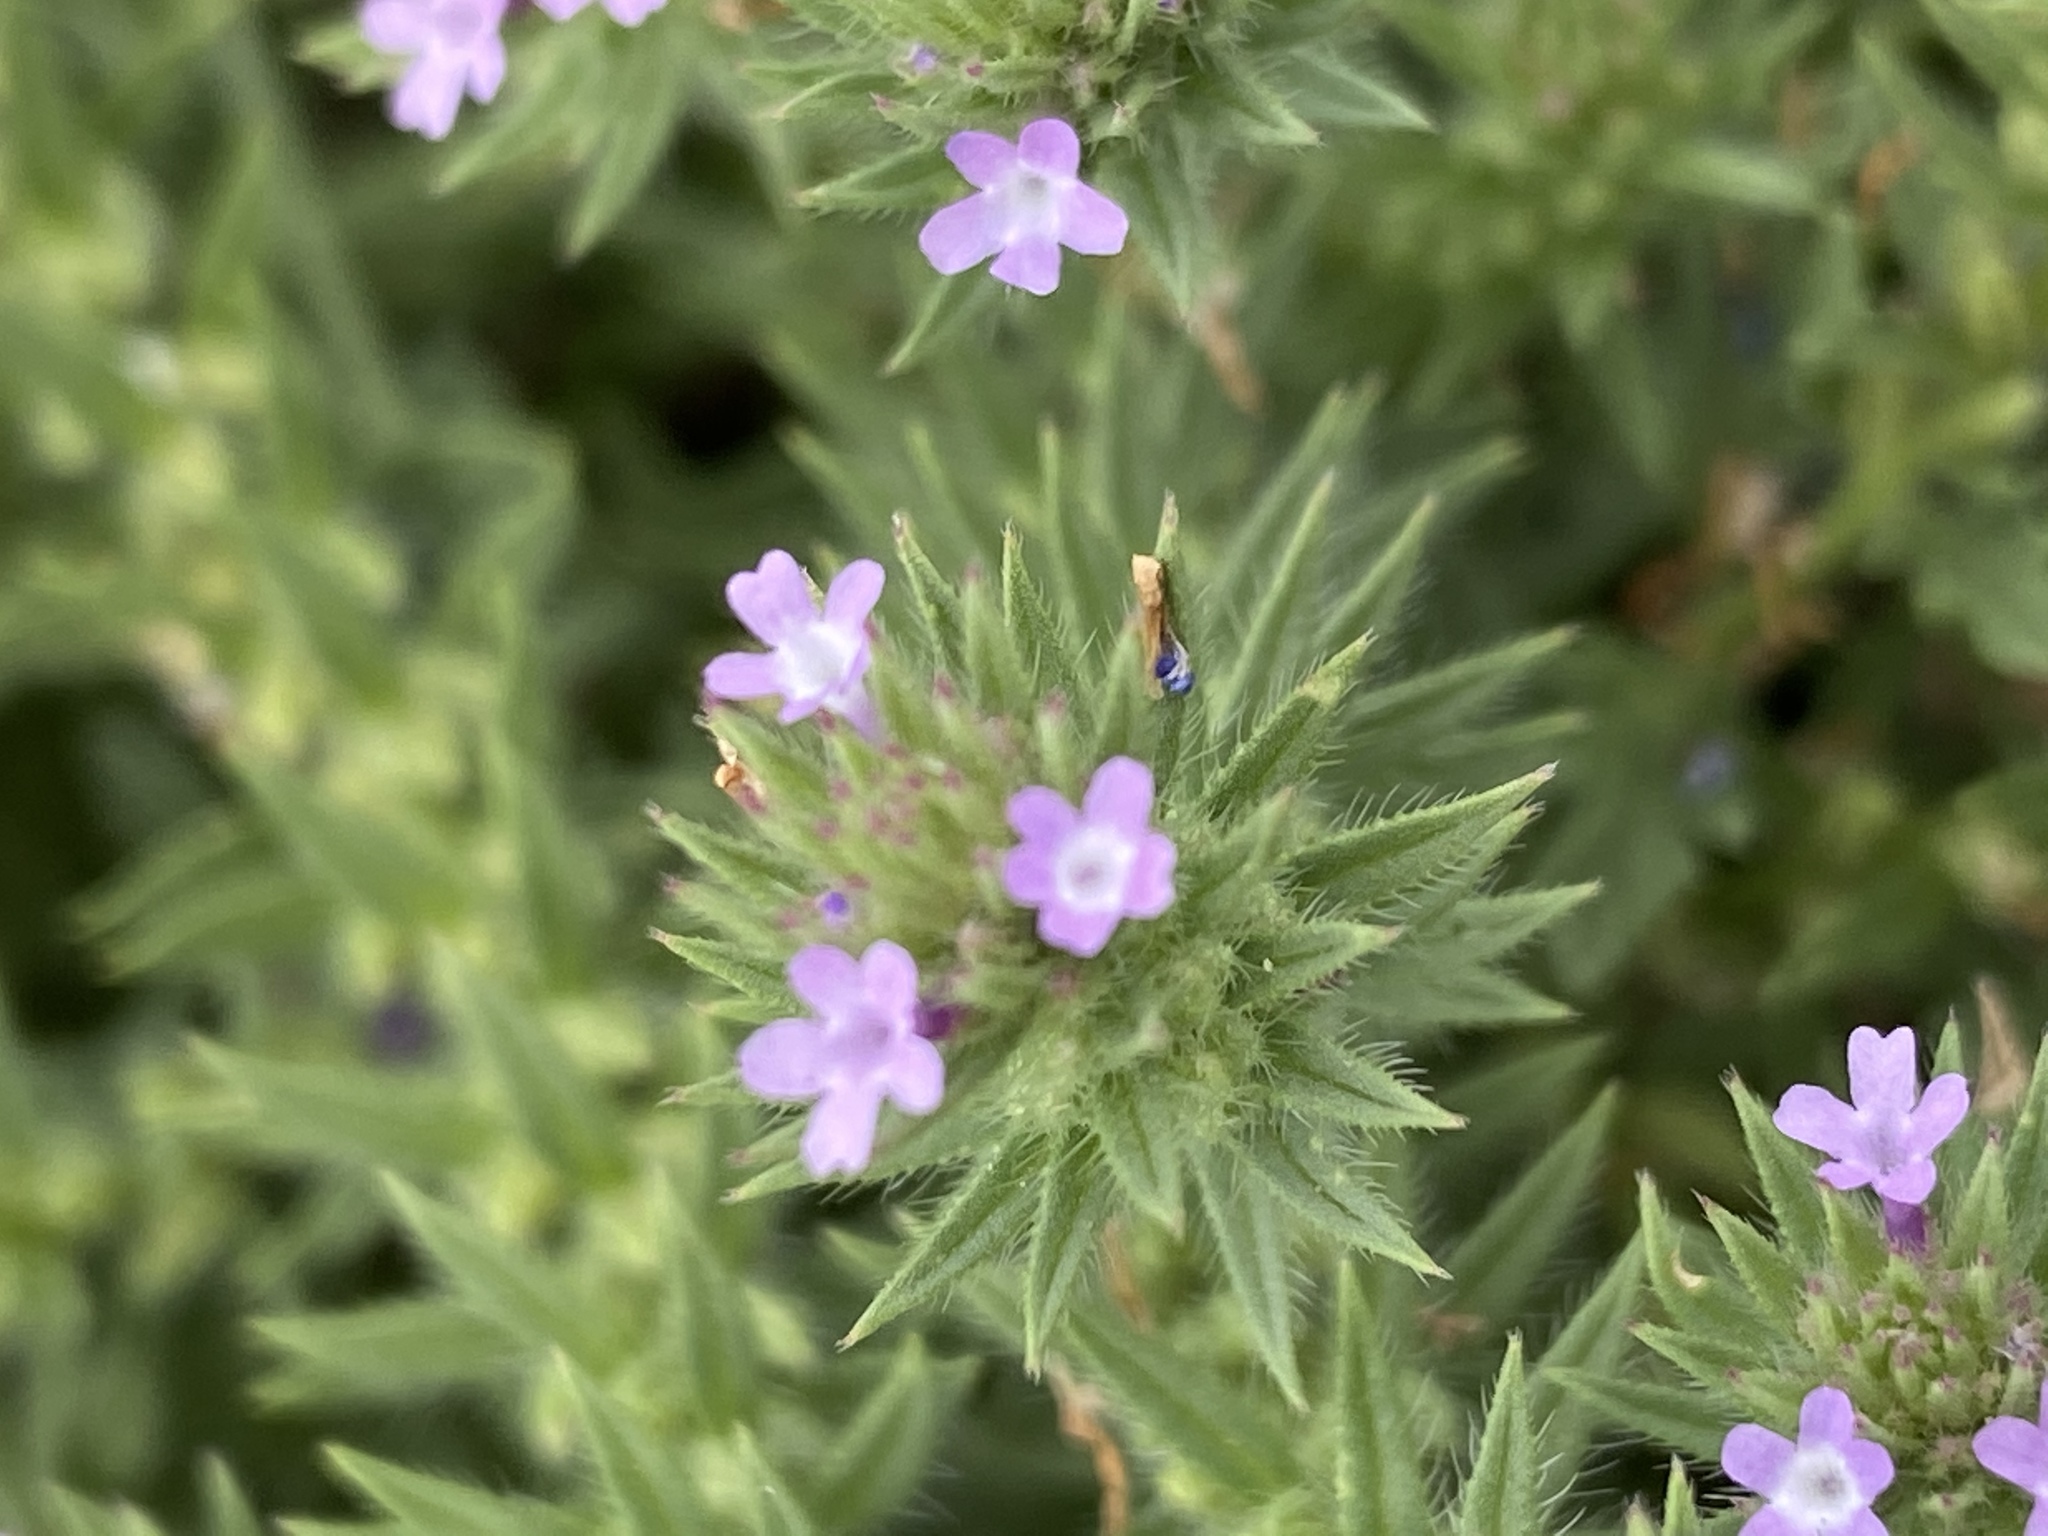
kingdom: Plantae
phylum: Tracheophyta
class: Magnoliopsida
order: Lamiales
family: Verbenaceae
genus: Verbena
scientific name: Verbena bracteata
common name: Bracted vervain
